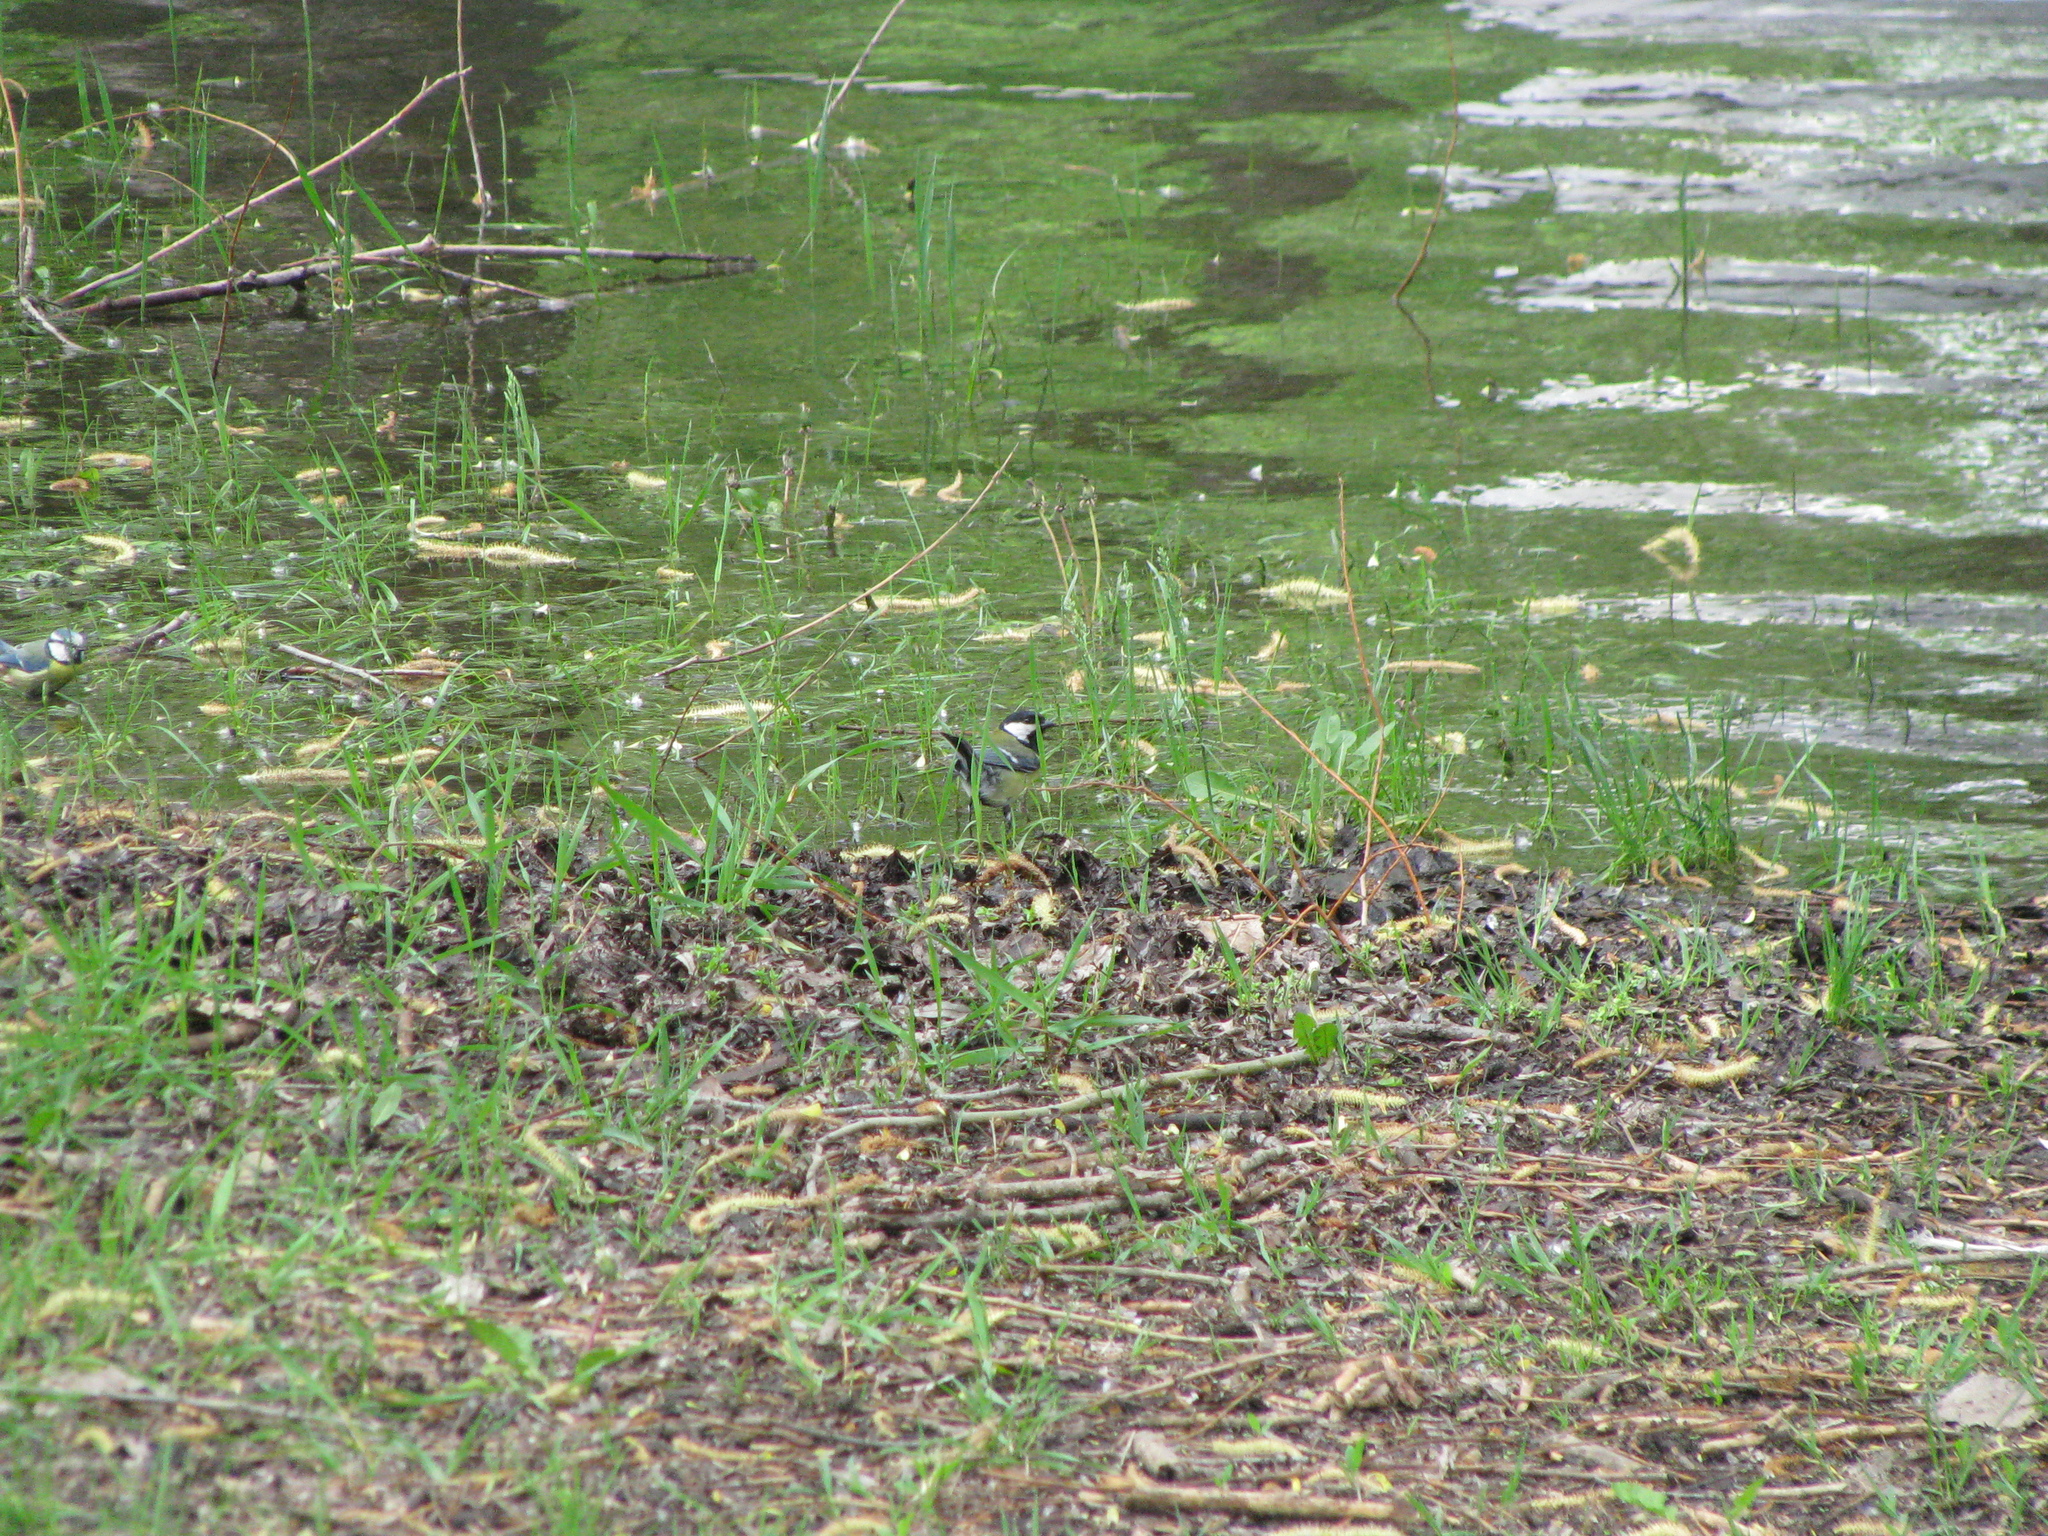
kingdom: Animalia
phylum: Chordata
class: Aves
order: Passeriformes
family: Paridae
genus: Parus
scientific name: Parus major
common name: Great tit
